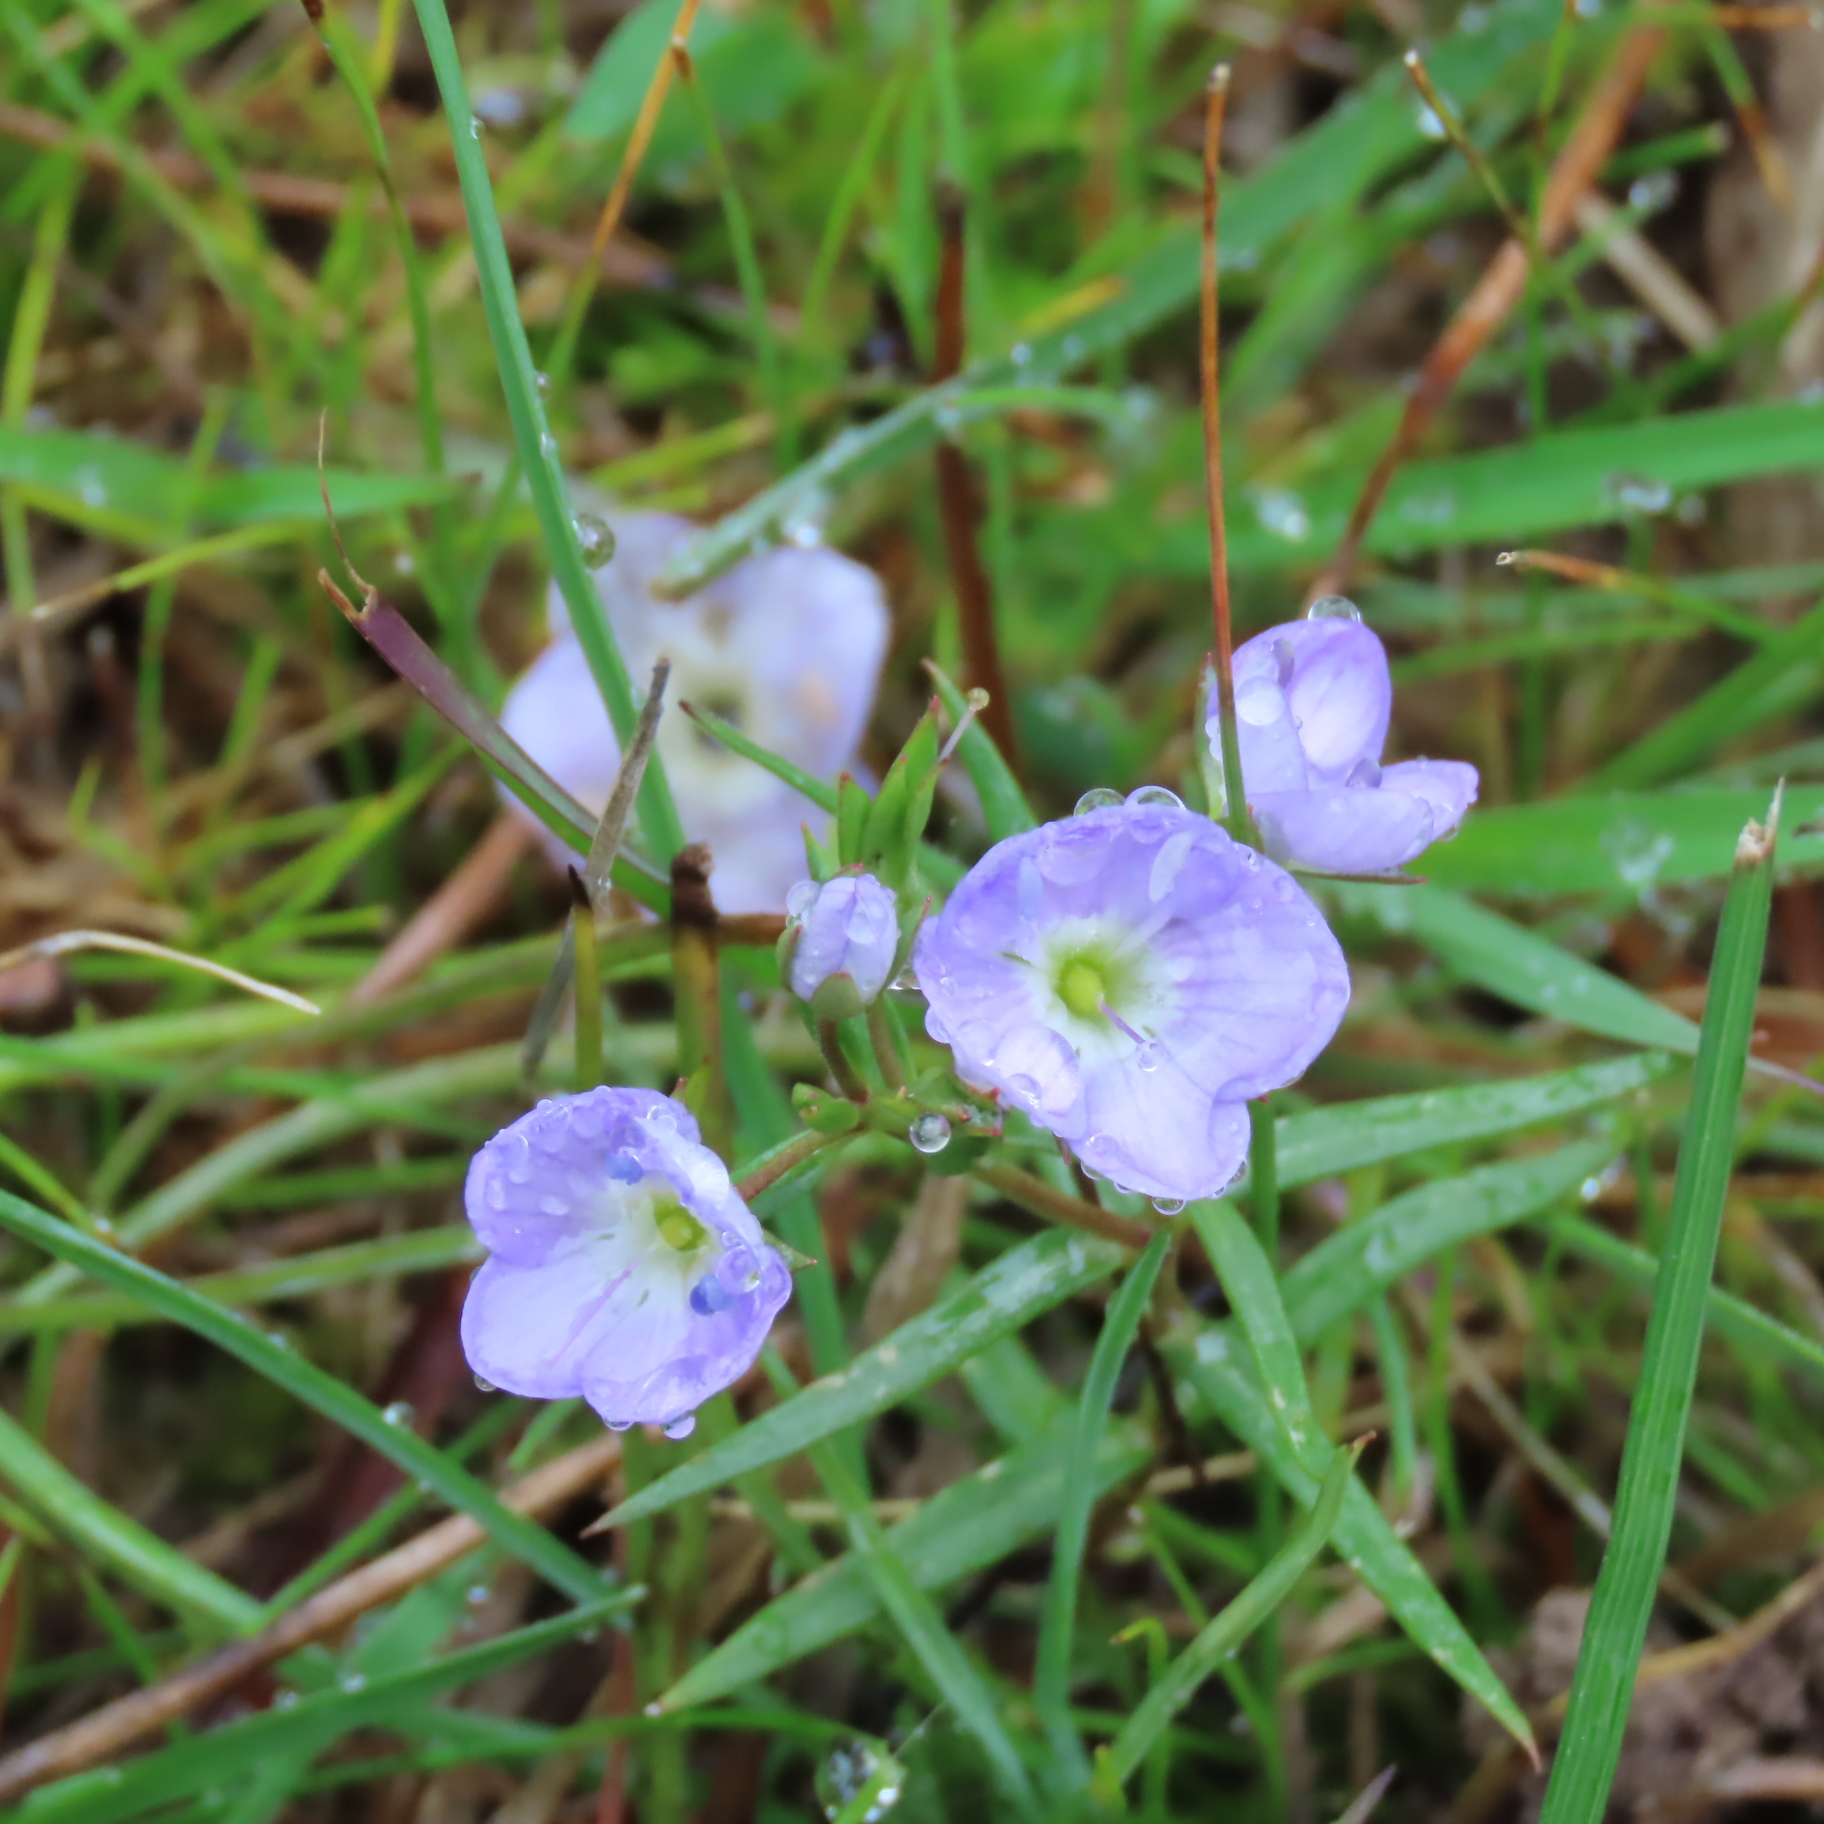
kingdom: Plantae
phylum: Tracheophyta
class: Magnoliopsida
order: Lamiales
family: Plantaginaceae
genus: Veronica
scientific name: Veronica gracilis
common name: Slender speedwell
